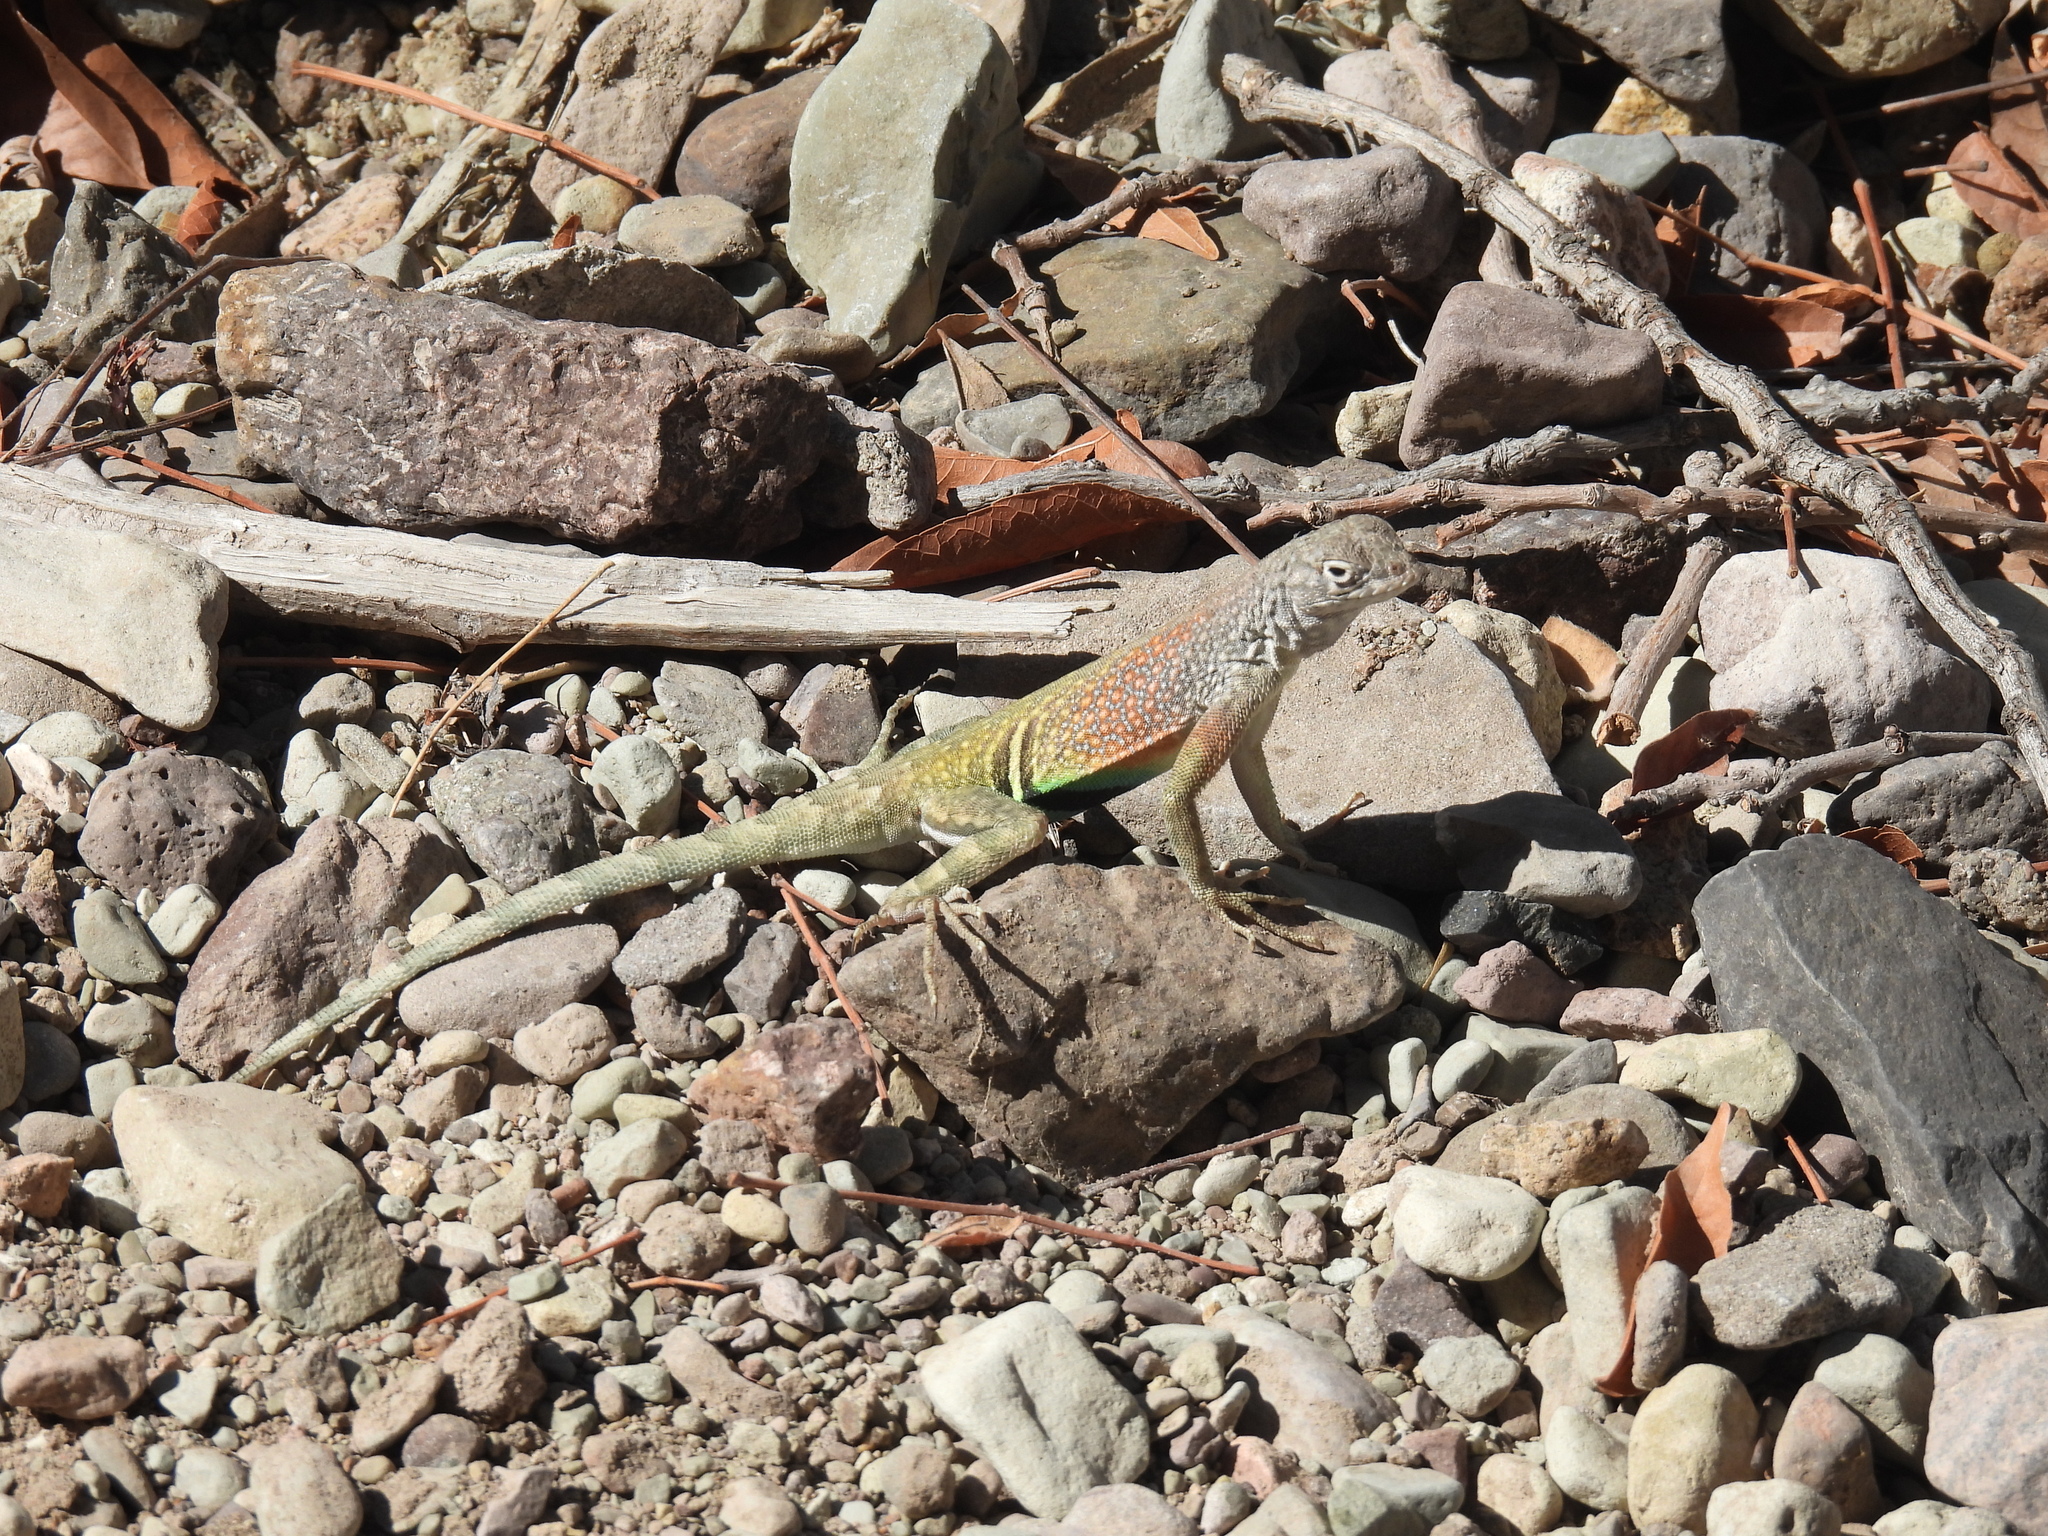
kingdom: Animalia
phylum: Chordata
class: Squamata
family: Phrynosomatidae
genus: Cophosaurus
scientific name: Cophosaurus texanus
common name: Greater earless lizard
